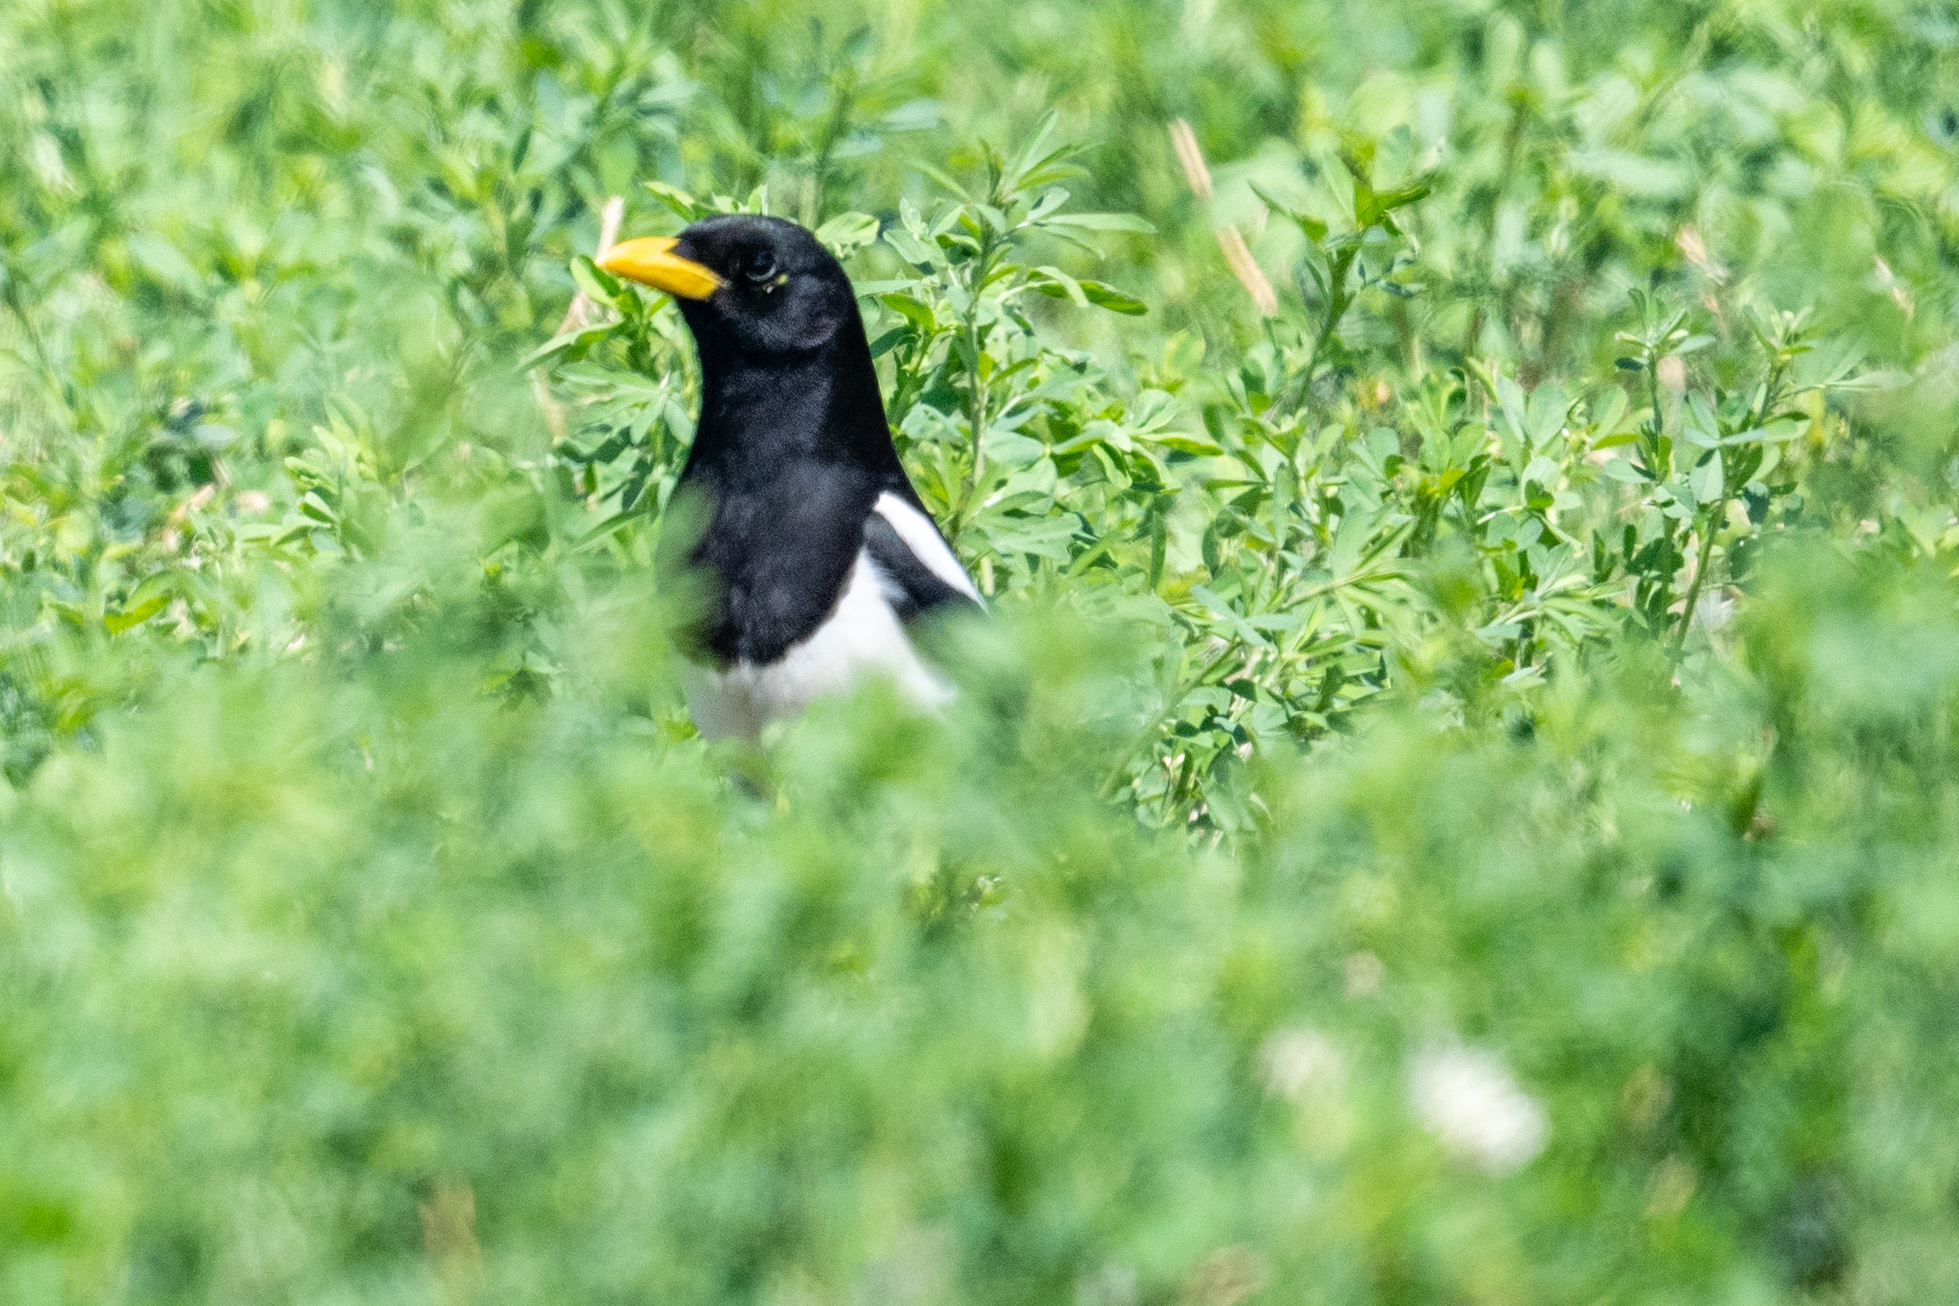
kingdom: Animalia
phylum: Chordata
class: Aves
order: Passeriformes
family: Corvidae
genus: Pica
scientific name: Pica nuttalli
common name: Yellow-billed magpie
